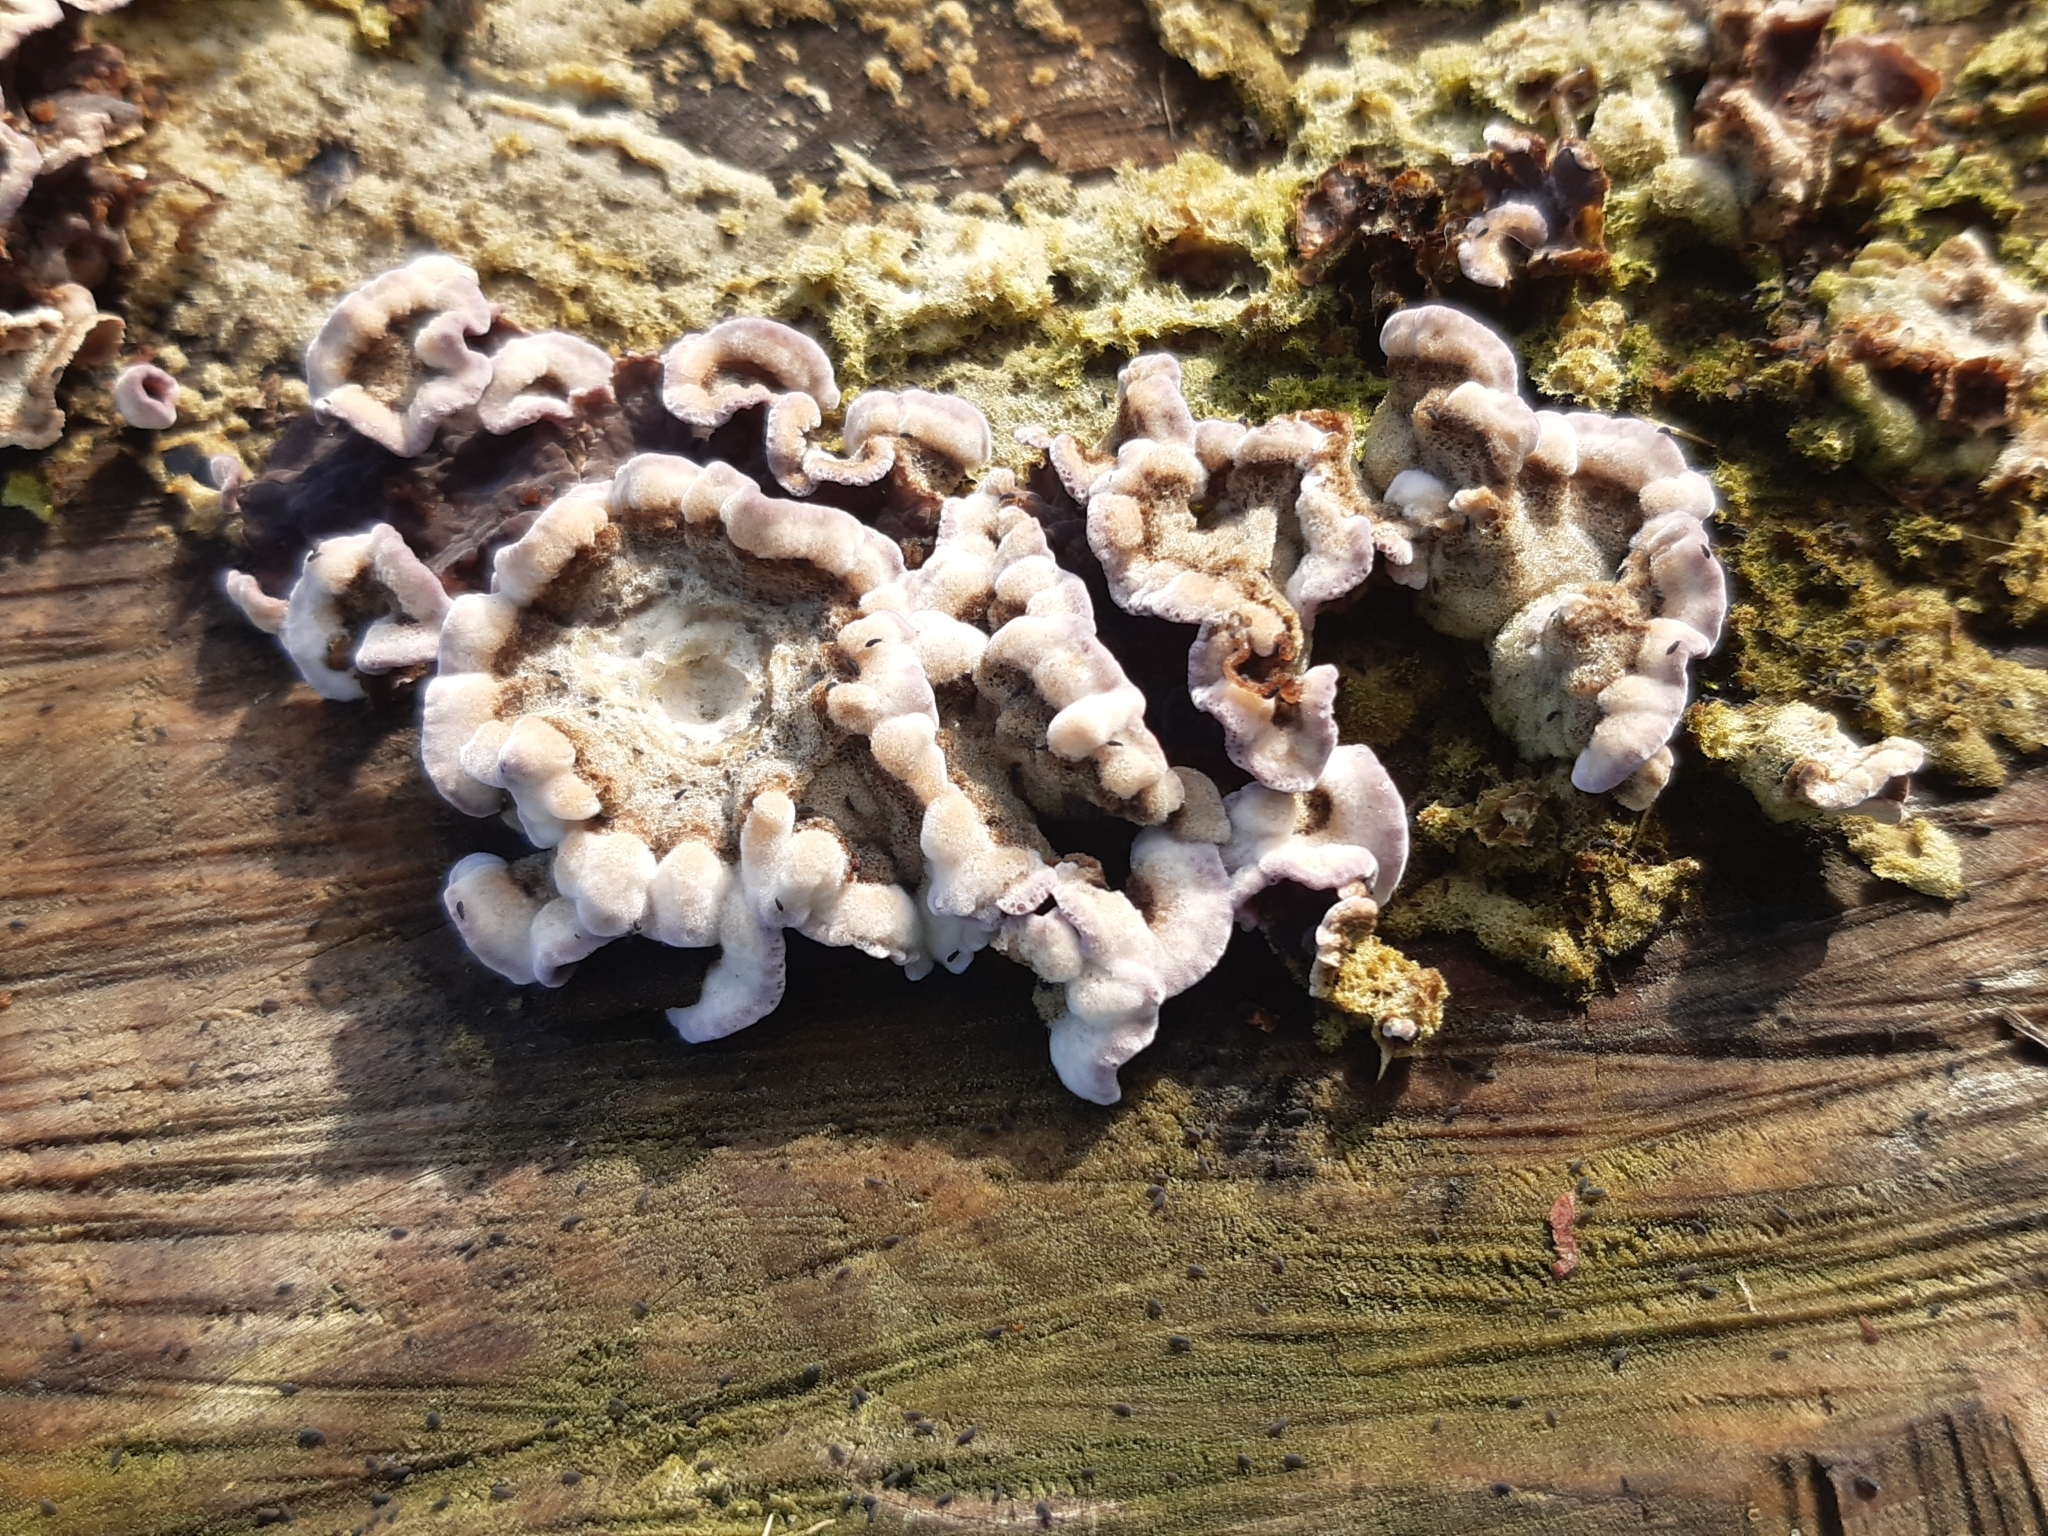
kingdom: Fungi
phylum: Basidiomycota
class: Agaricomycetes
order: Agaricales
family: Cyphellaceae
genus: Chondrostereum
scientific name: Chondrostereum purpureum
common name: Silver leaf disease
